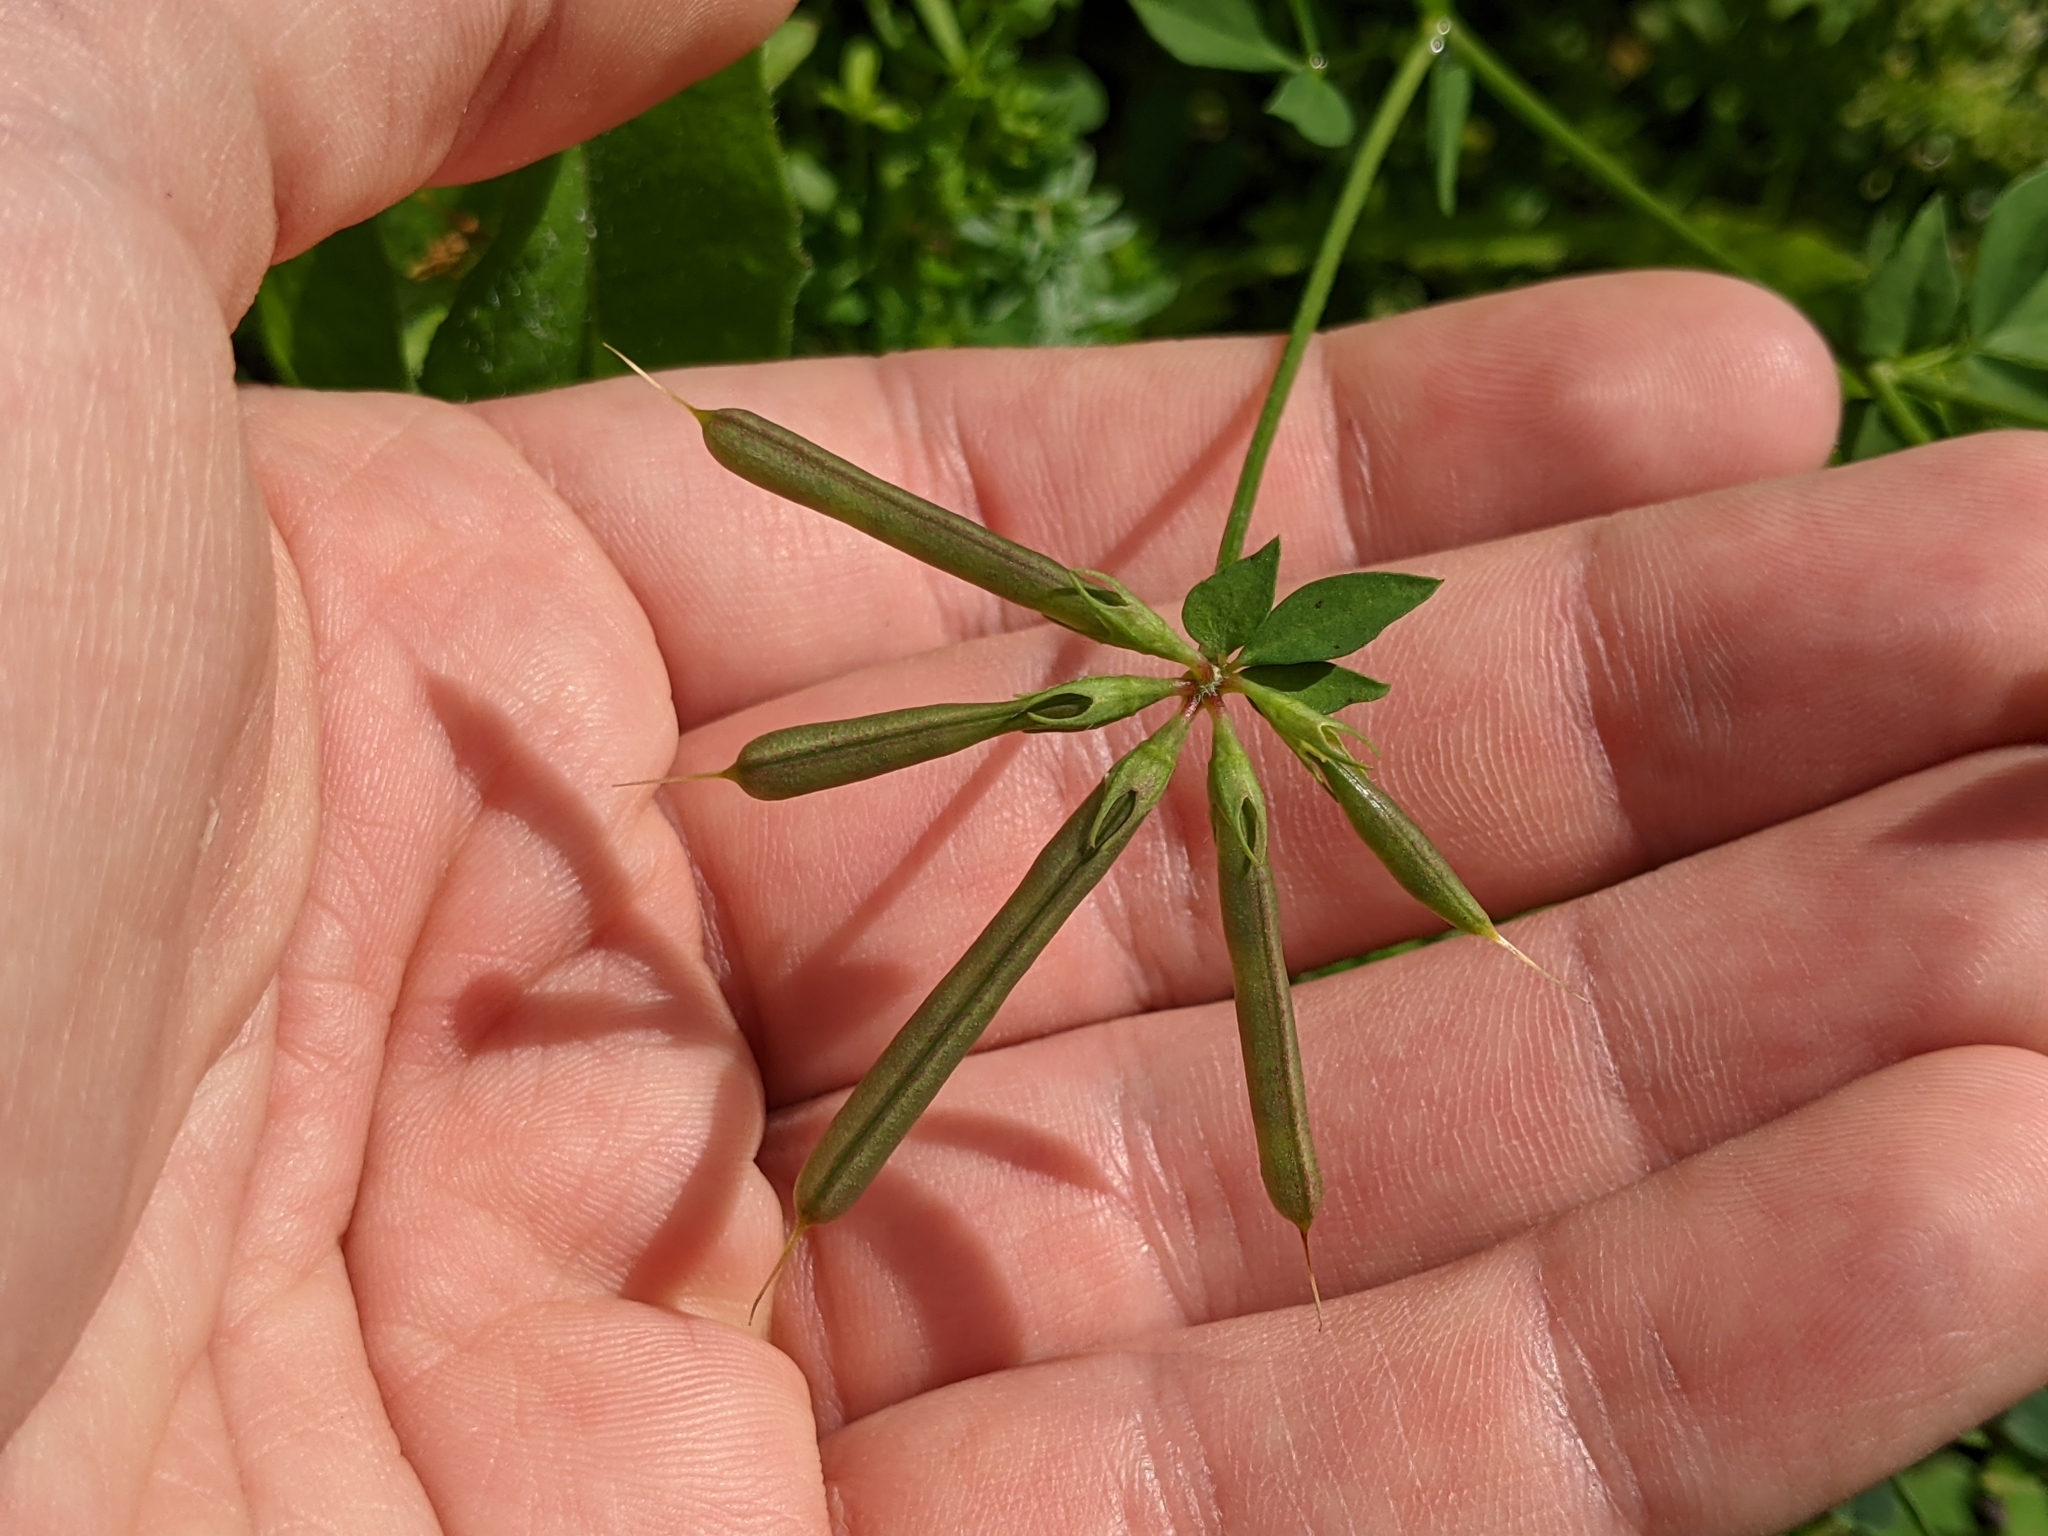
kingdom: Plantae
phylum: Tracheophyta
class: Magnoliopsida
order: Fabales
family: Fabaceae
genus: Lotus
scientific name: Lotus corniculatus
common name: Common bird's-foot-trefoil
